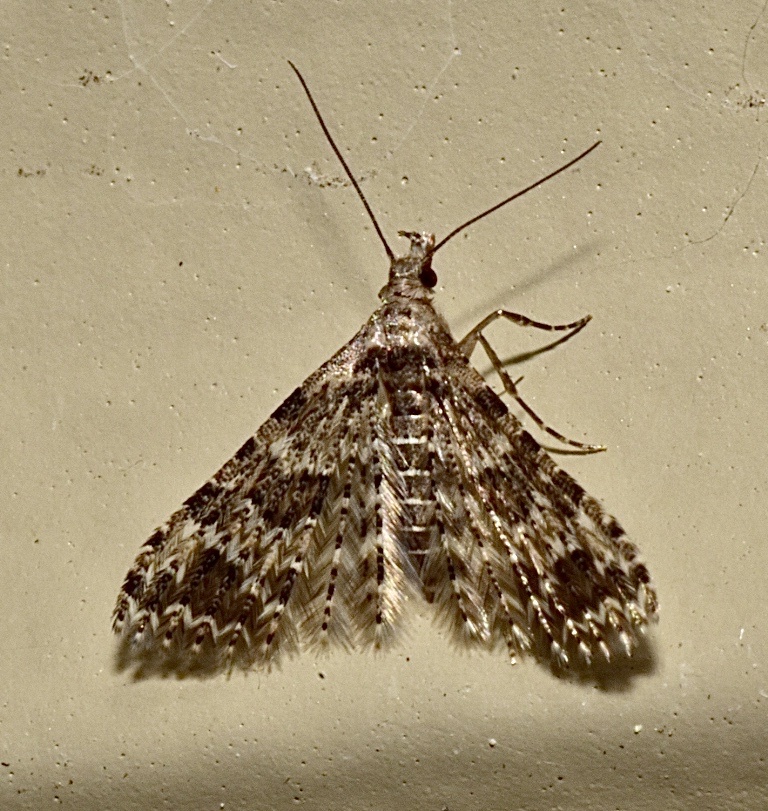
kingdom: Animalia
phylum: Arthropoda
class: Insecta
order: Lepidoptera
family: Alucitidae
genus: Alucita
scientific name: Alucita montana
